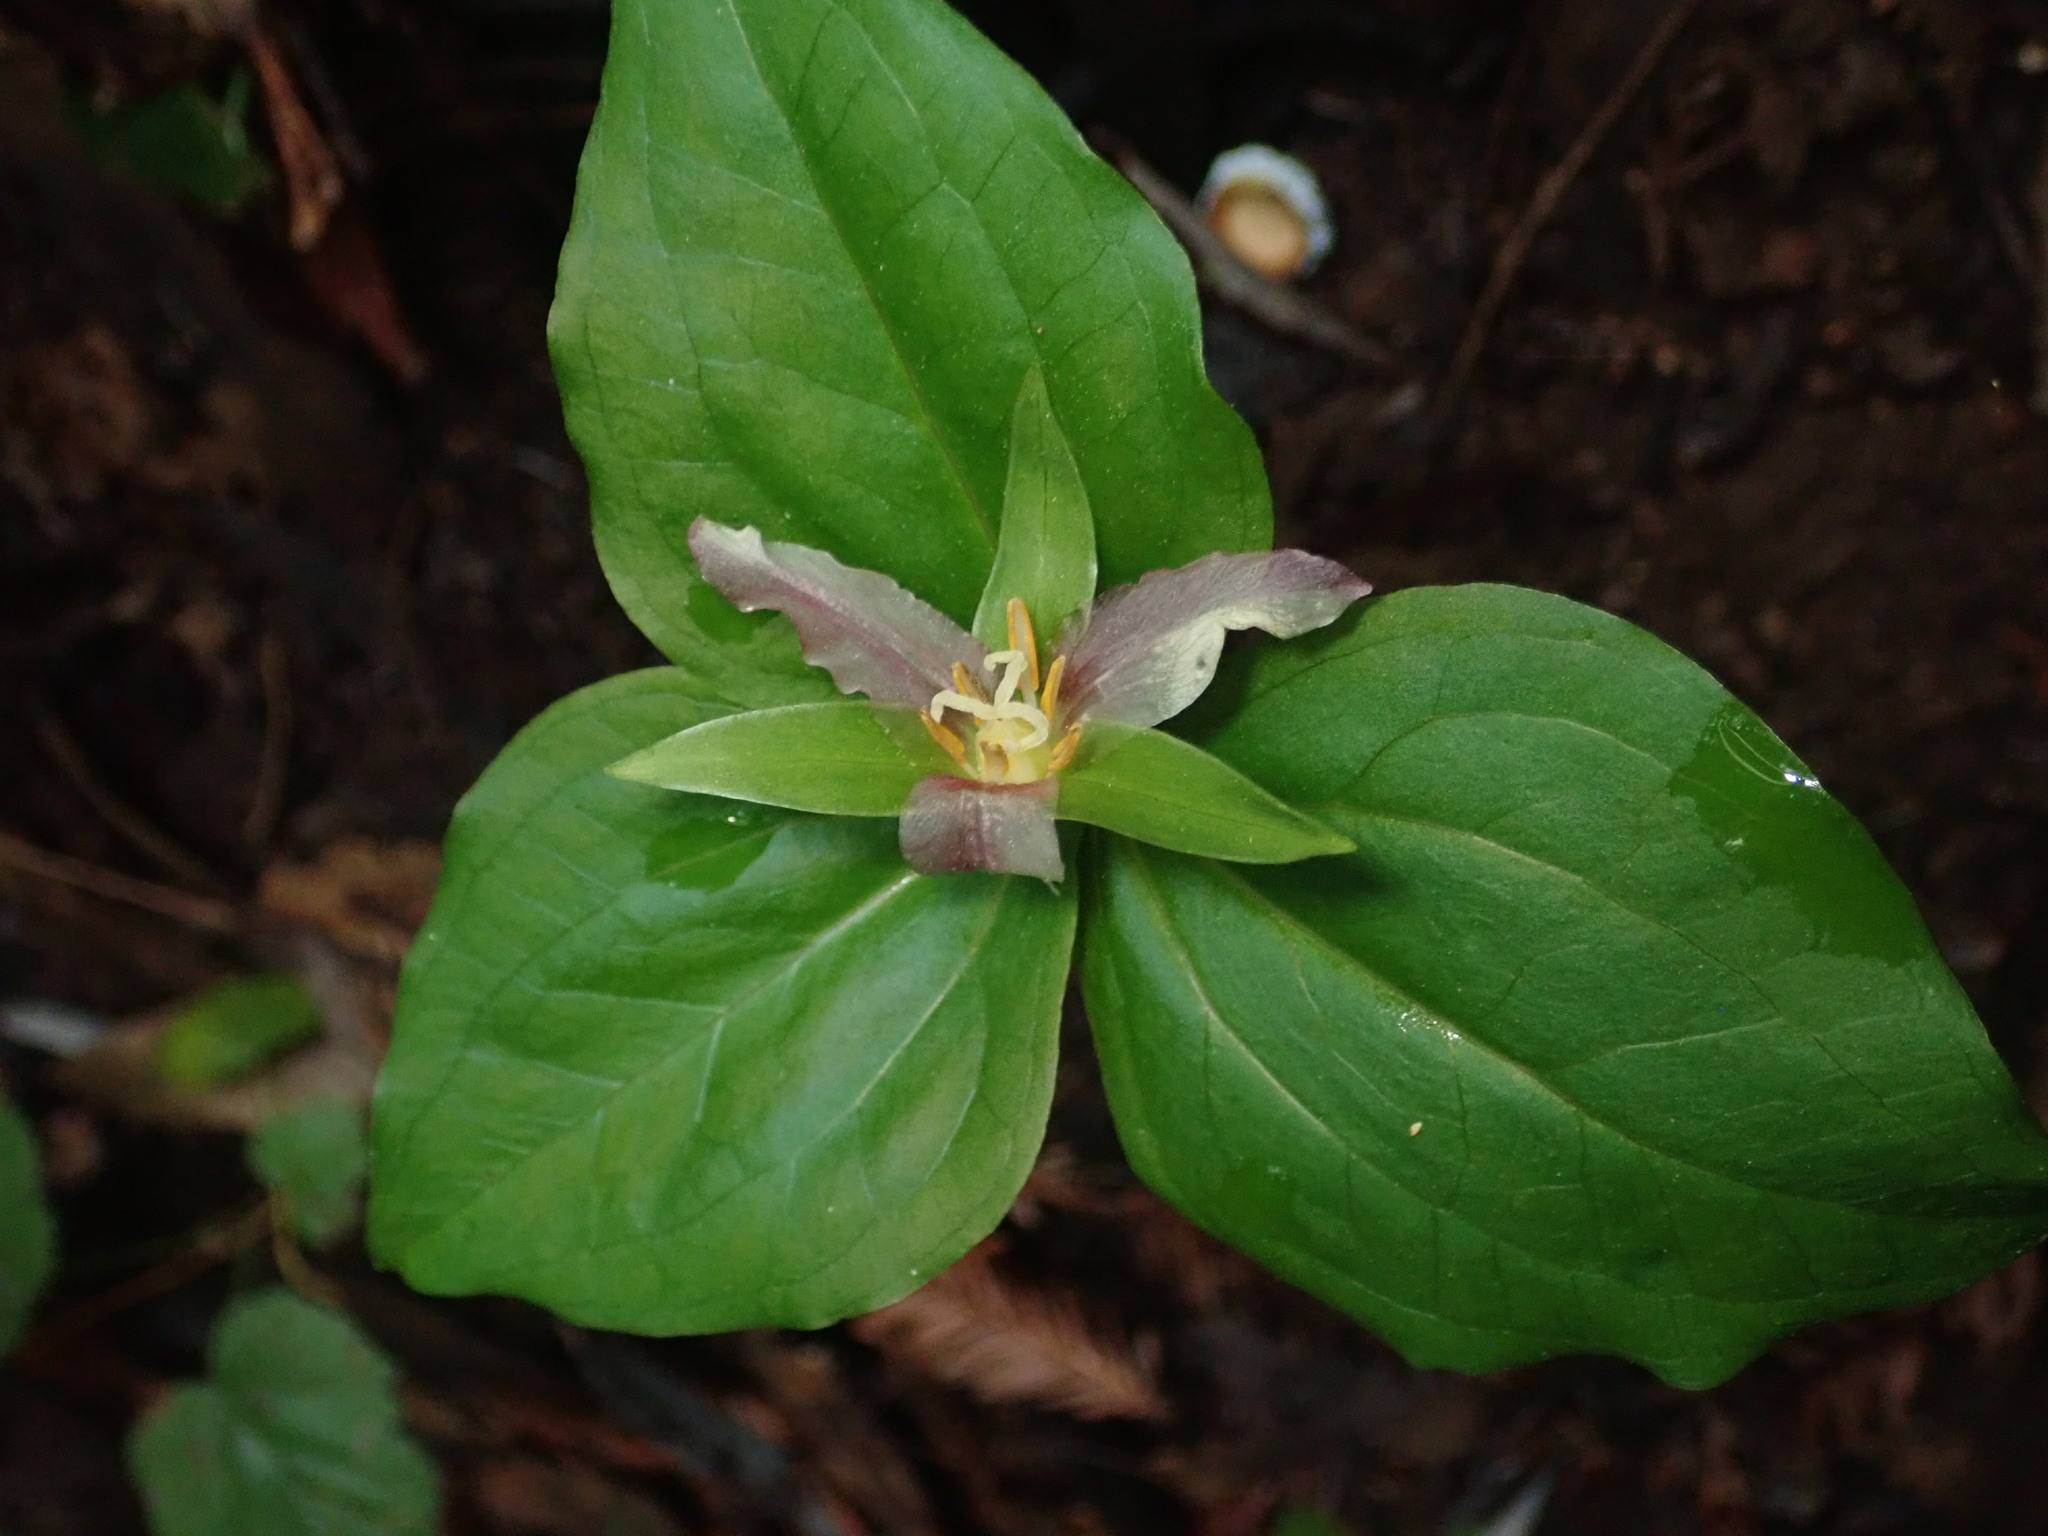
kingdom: Plantae
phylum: Tracheophyta
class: Liliopsida
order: Liliales
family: Melanthiaceae
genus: Trillium
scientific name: Trillium ovatum
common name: Pacific trillium
